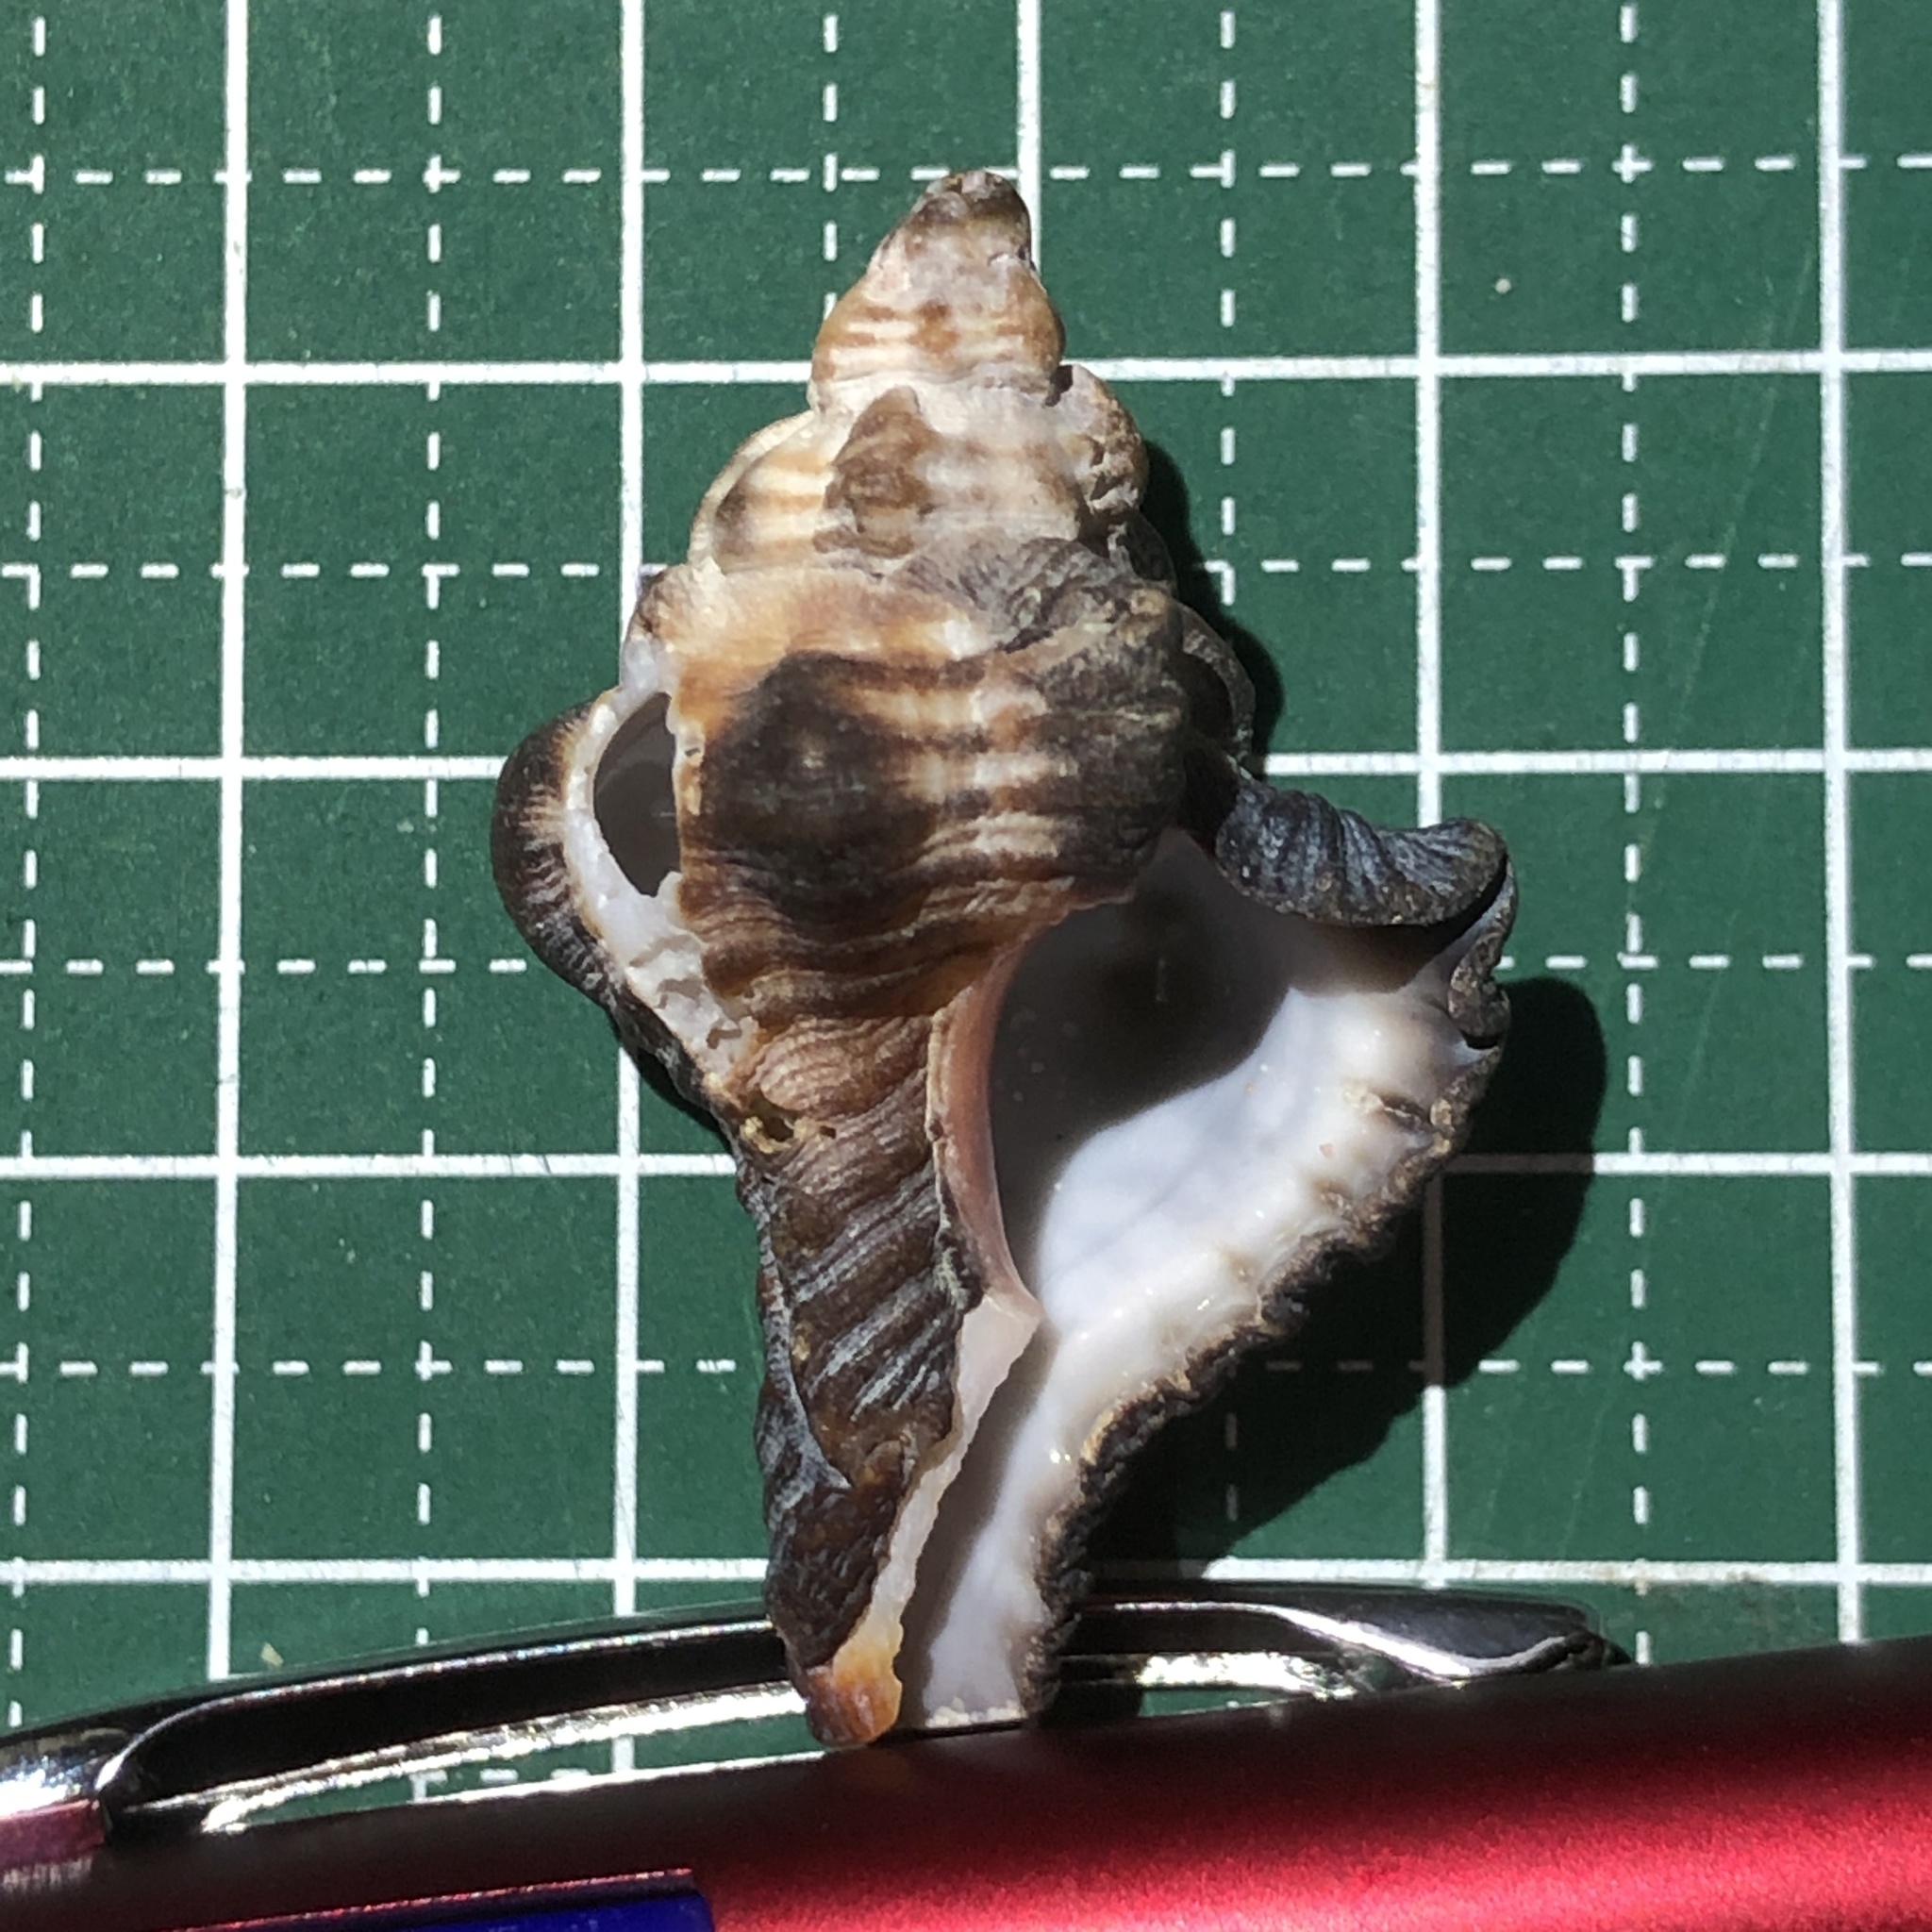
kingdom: Animalia
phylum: Mollusca
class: Gastropoda
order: Neogastropoda
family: Muricidae
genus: Chicoreus
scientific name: Chicoreus brunneus
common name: Adusta murex
